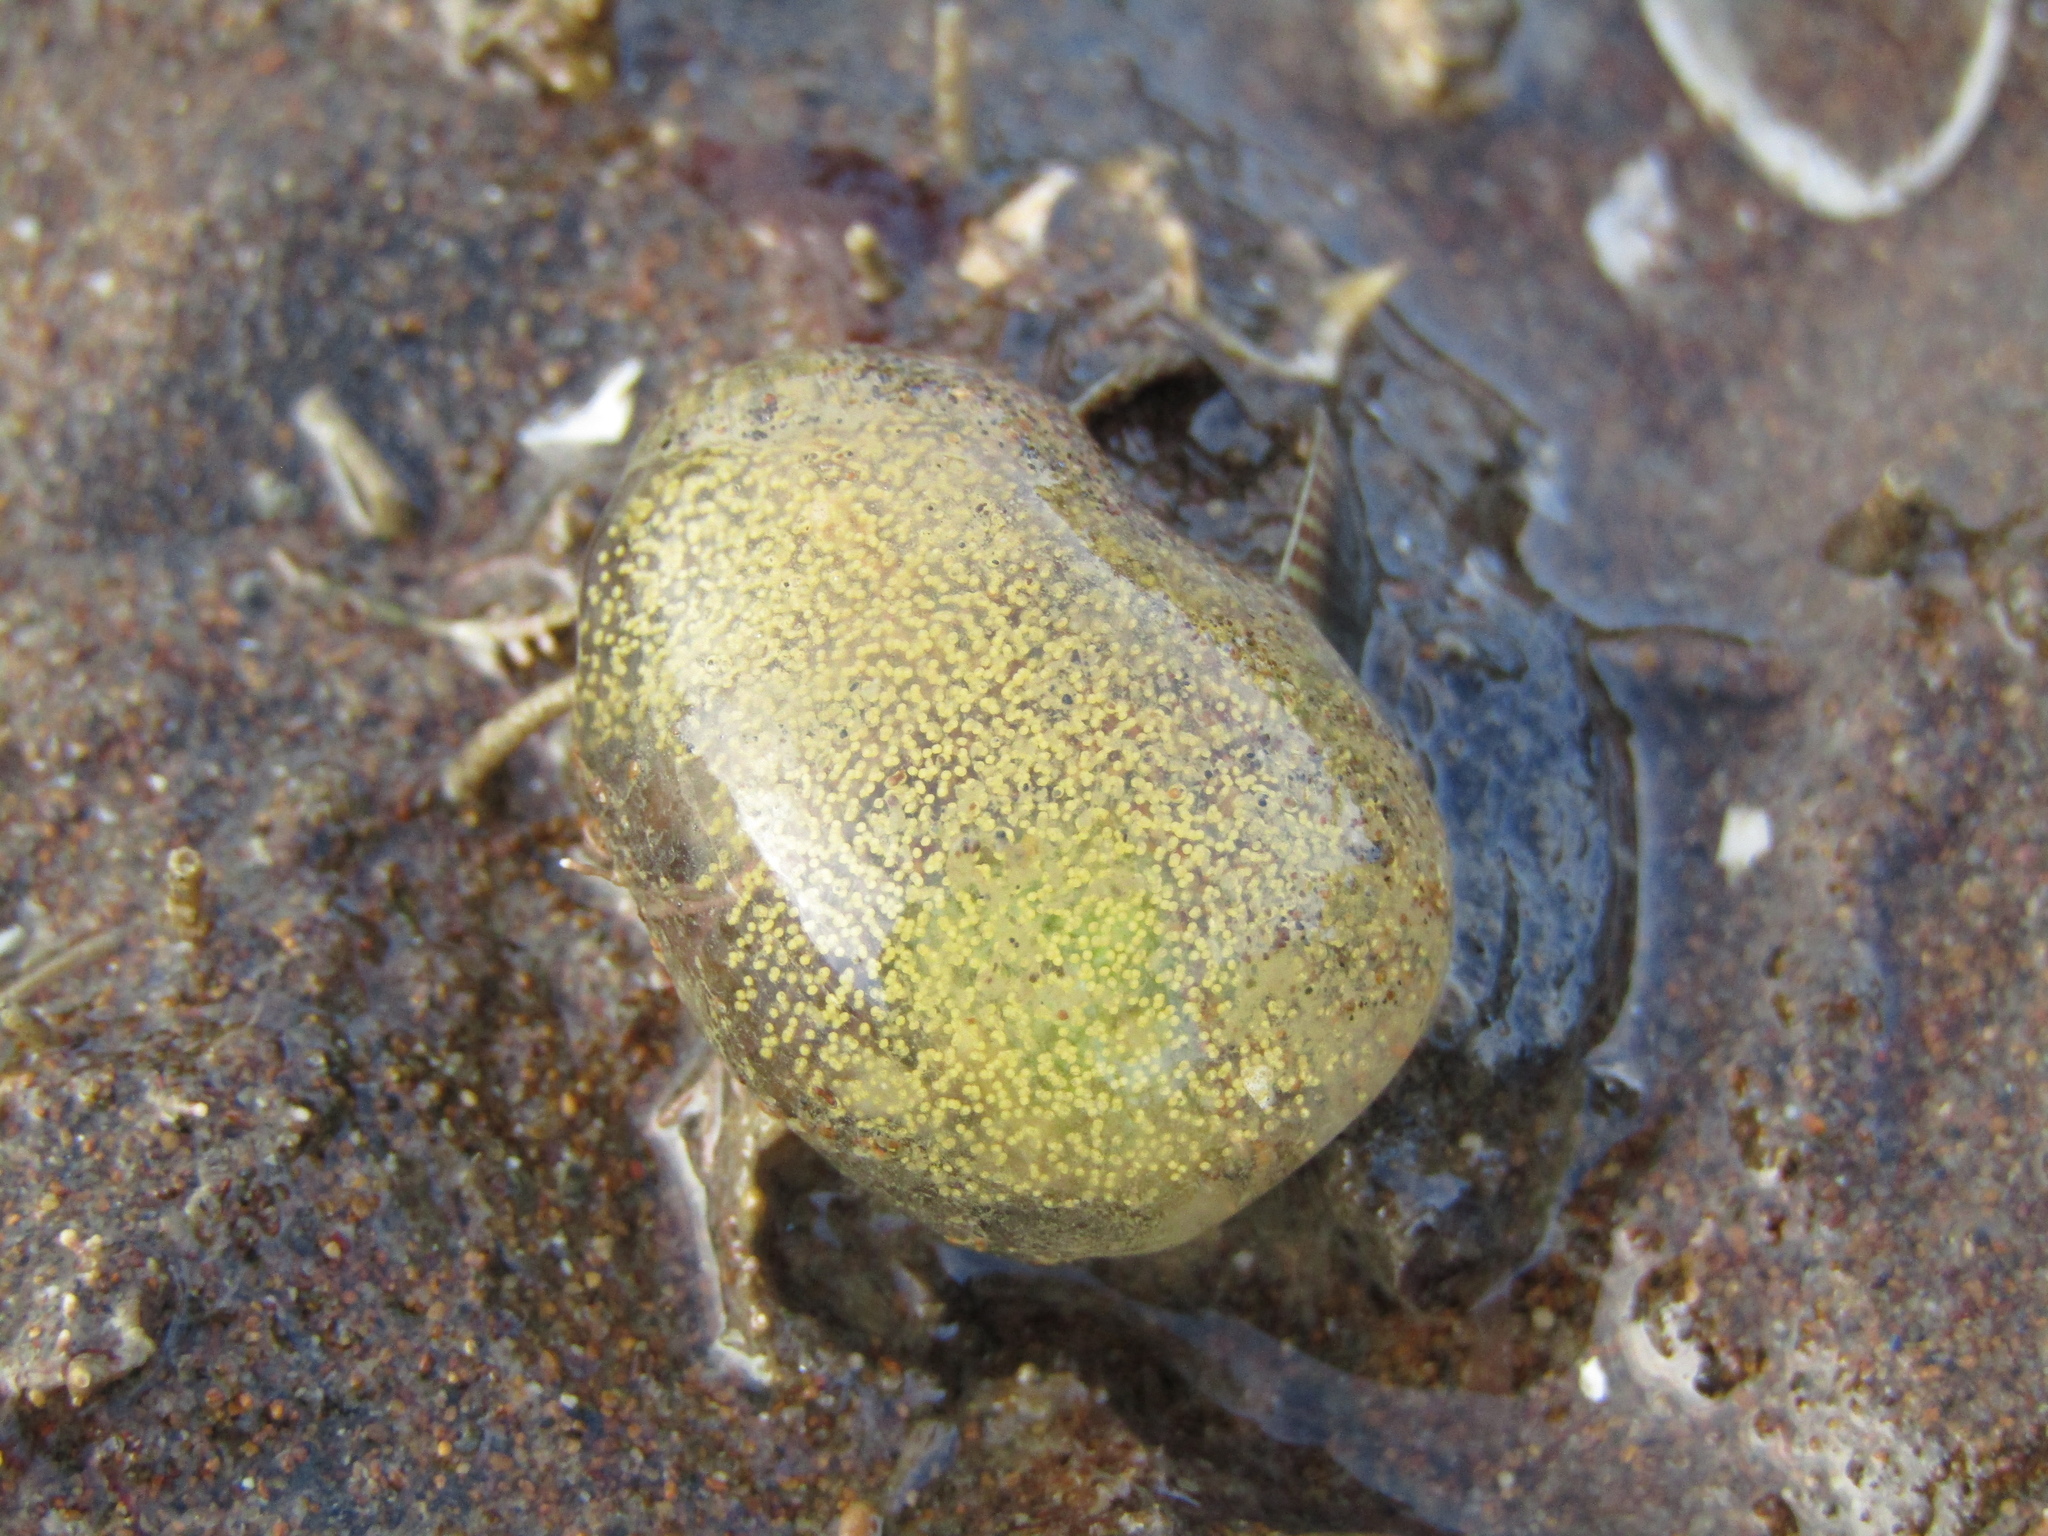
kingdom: Animalia
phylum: Mollusca
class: Gastropoda
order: Cephalaspidea
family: Haminoeidae
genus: Papawera
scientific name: Papawera zelandiae
